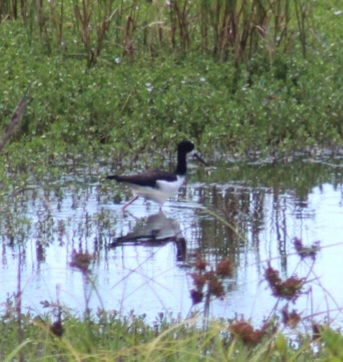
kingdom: Animalia
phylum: Chordata
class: Aves
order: Charadriiformes
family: Recurvirostridae
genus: Himantopus
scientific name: Himantopus mexicanus
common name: Black-necked stilt
